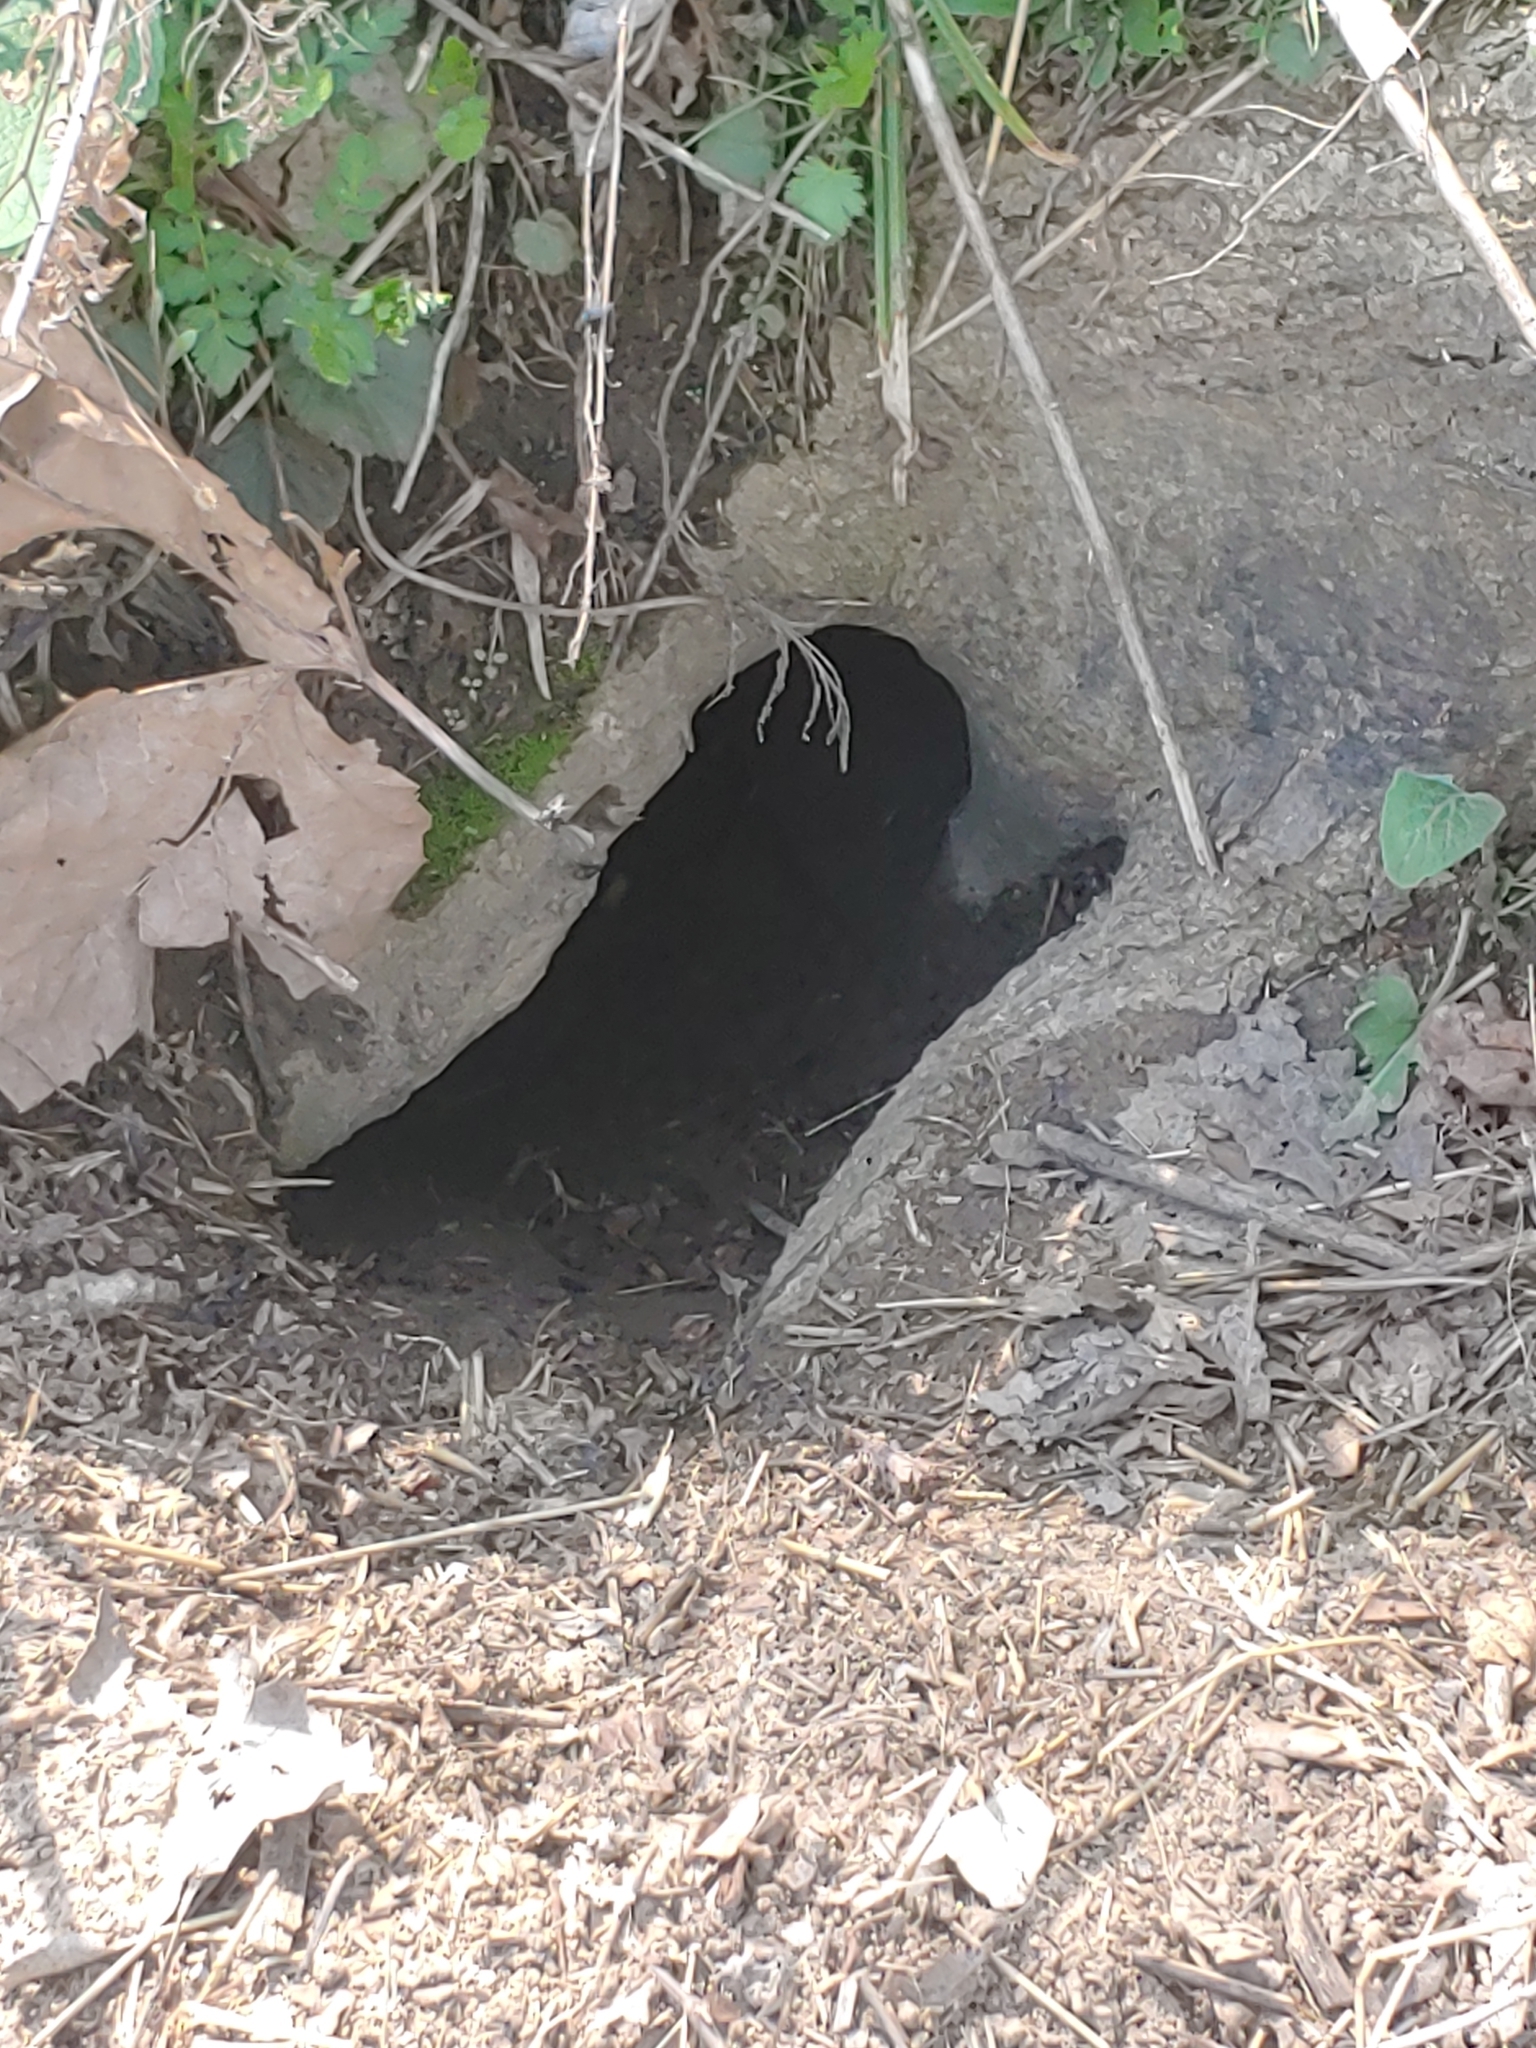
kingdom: Animalia
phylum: Chordata
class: Mammalia
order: Rodentia
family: Sciuridae
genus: Marmota
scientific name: Marmota monax
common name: Groundhog
